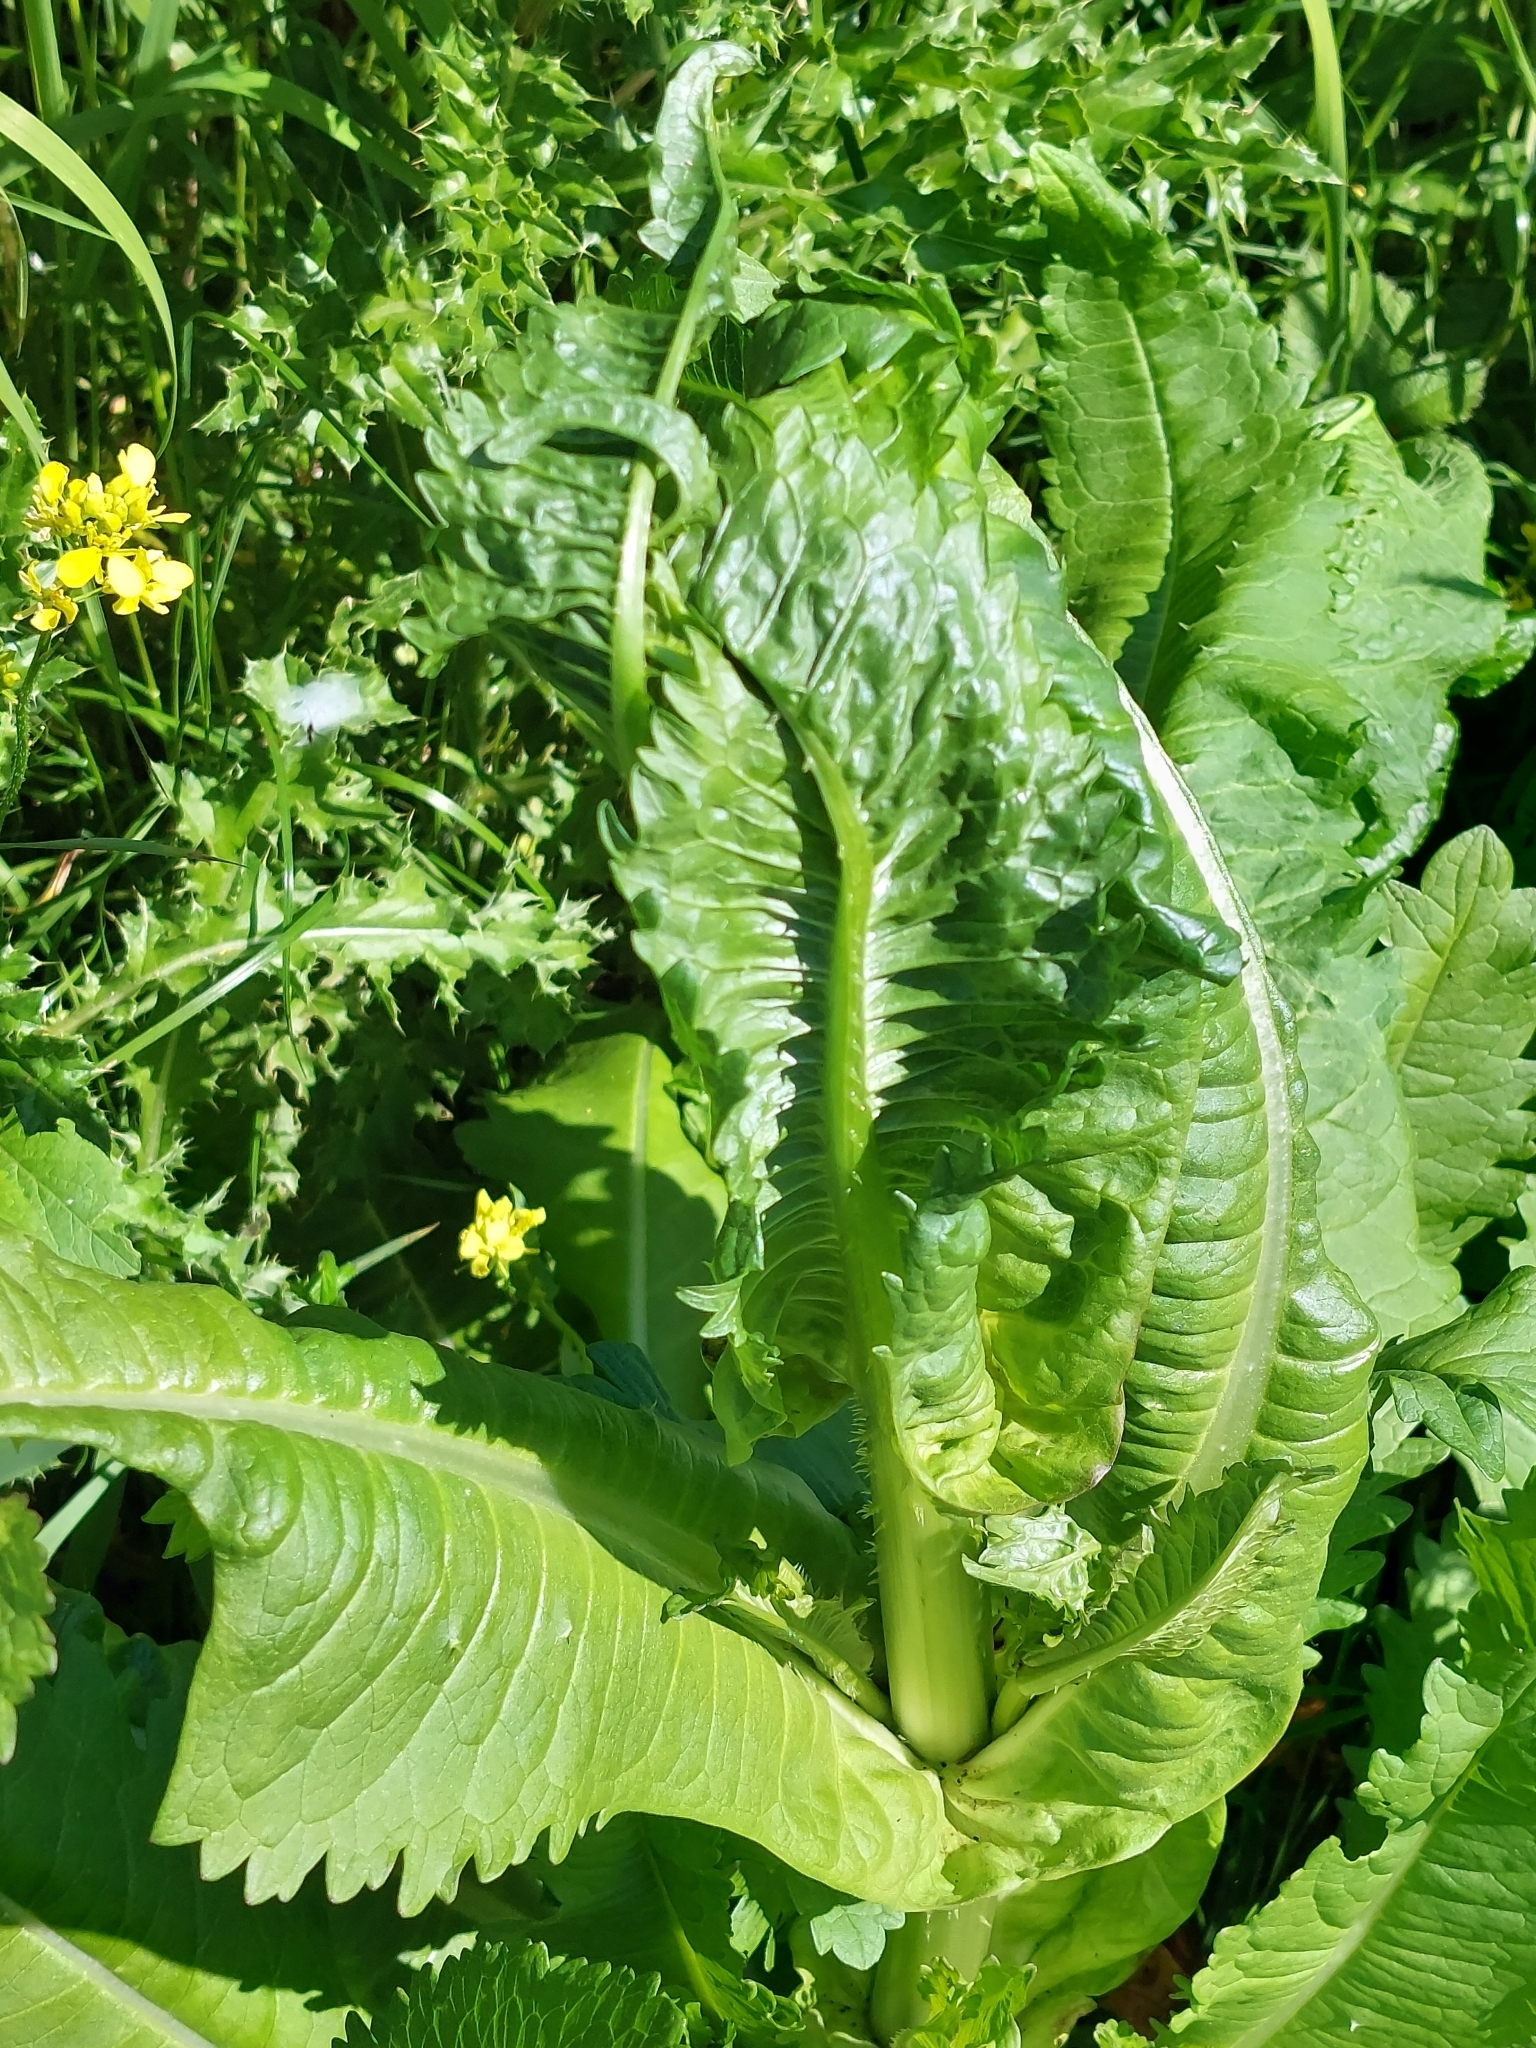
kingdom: Plantae
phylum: Tracheophyta
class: Magnoliopsida
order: Dipsacales
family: Caprifoliaceae
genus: Dipsacus
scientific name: Dipsacus fullonum
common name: Teasel
